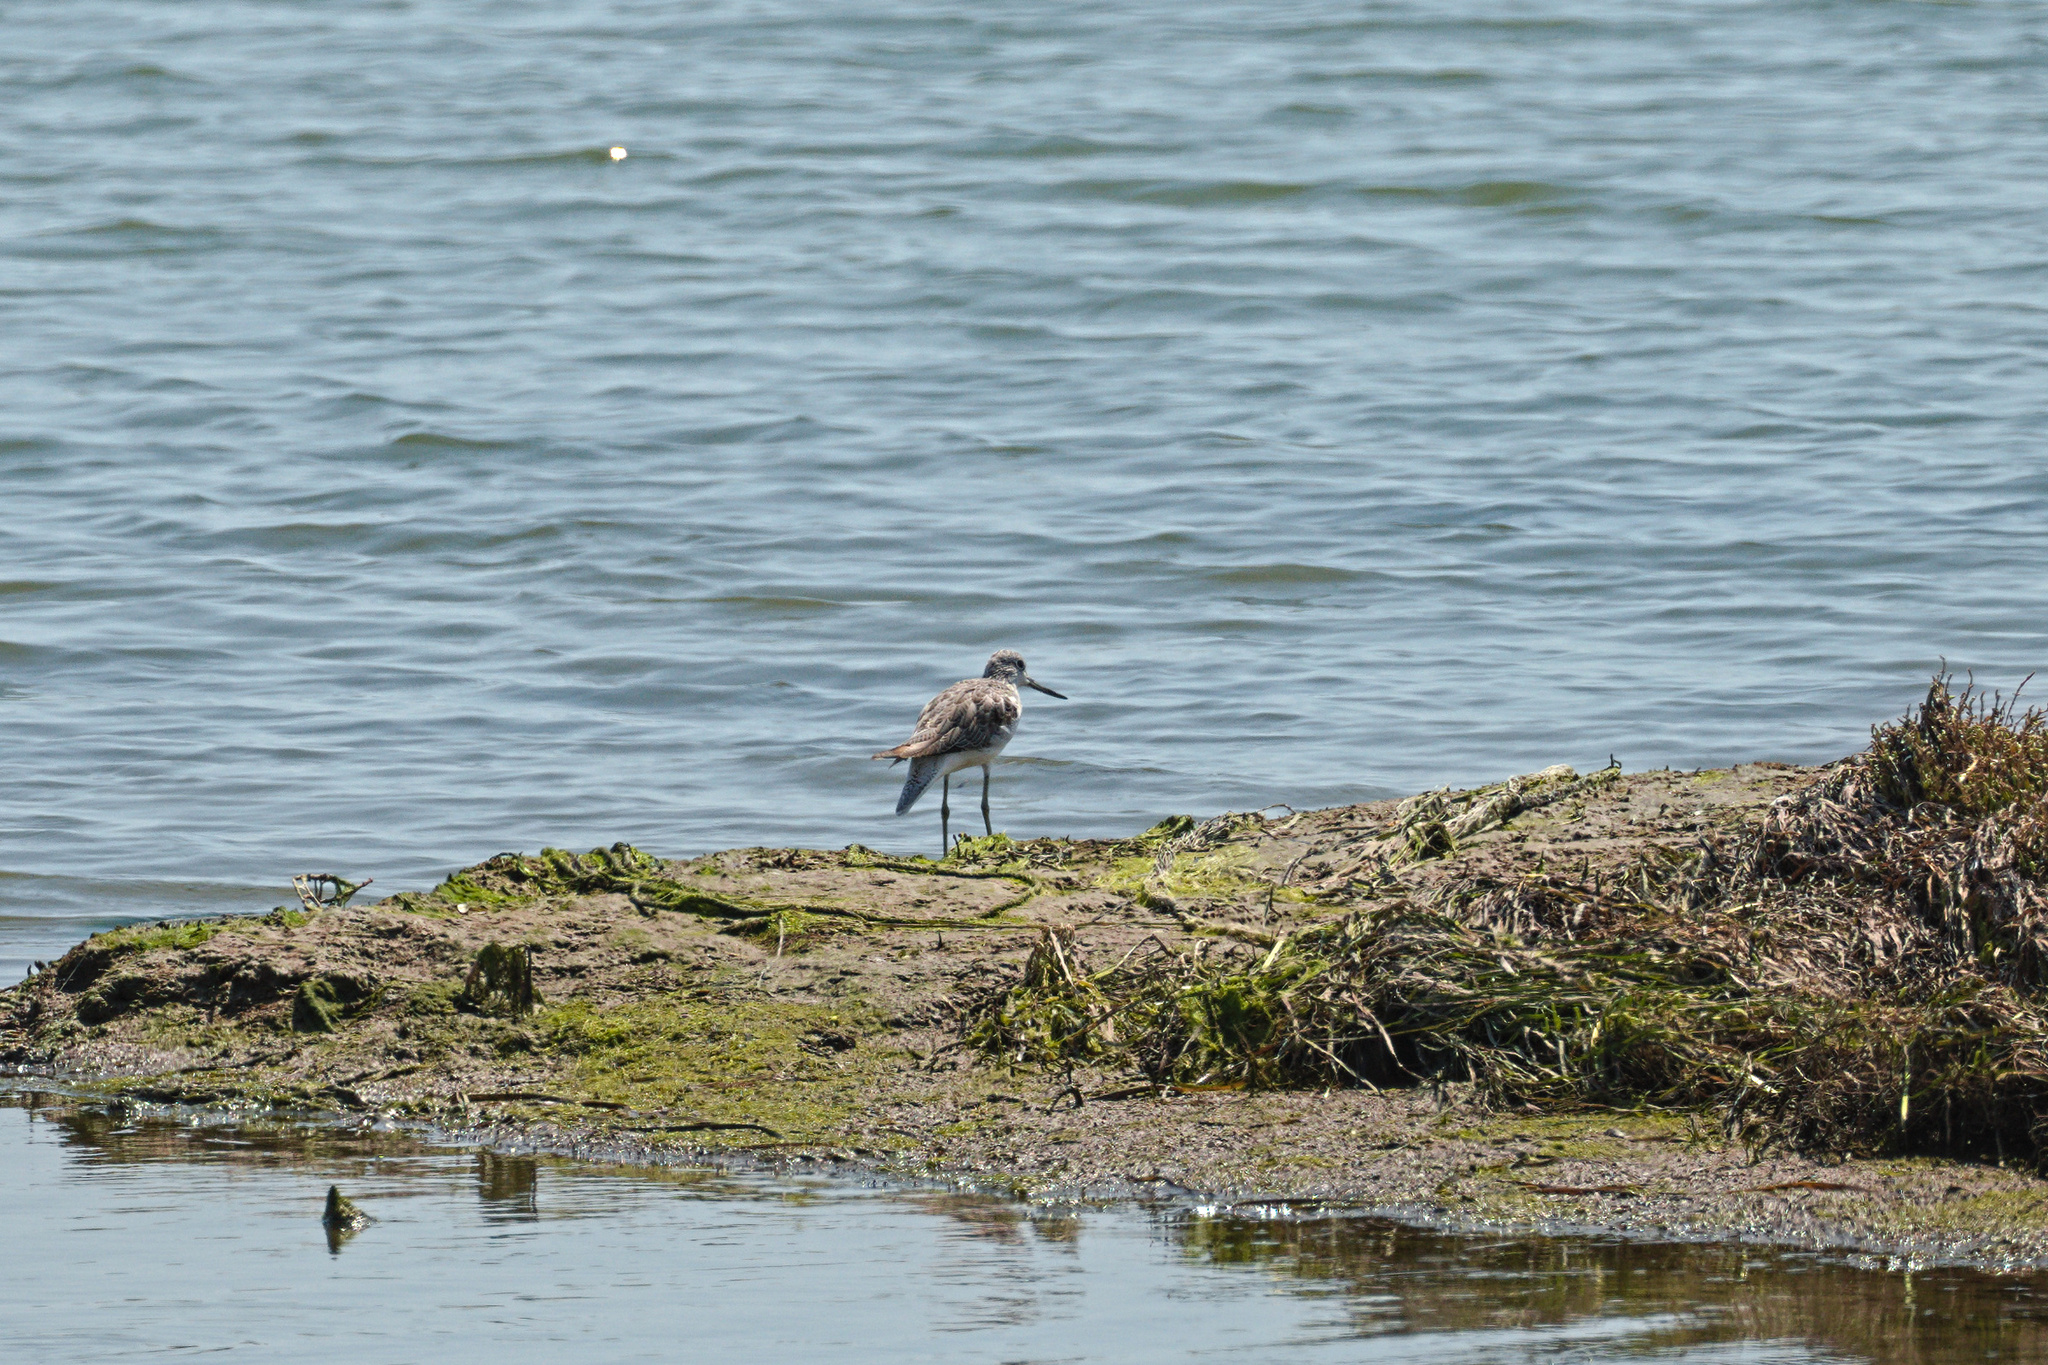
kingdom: Animalia
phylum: Chordata
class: Aves
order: Charadriiformes
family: Scolopacidae
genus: Tringa
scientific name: Tringa nebularia
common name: Common greenshank
